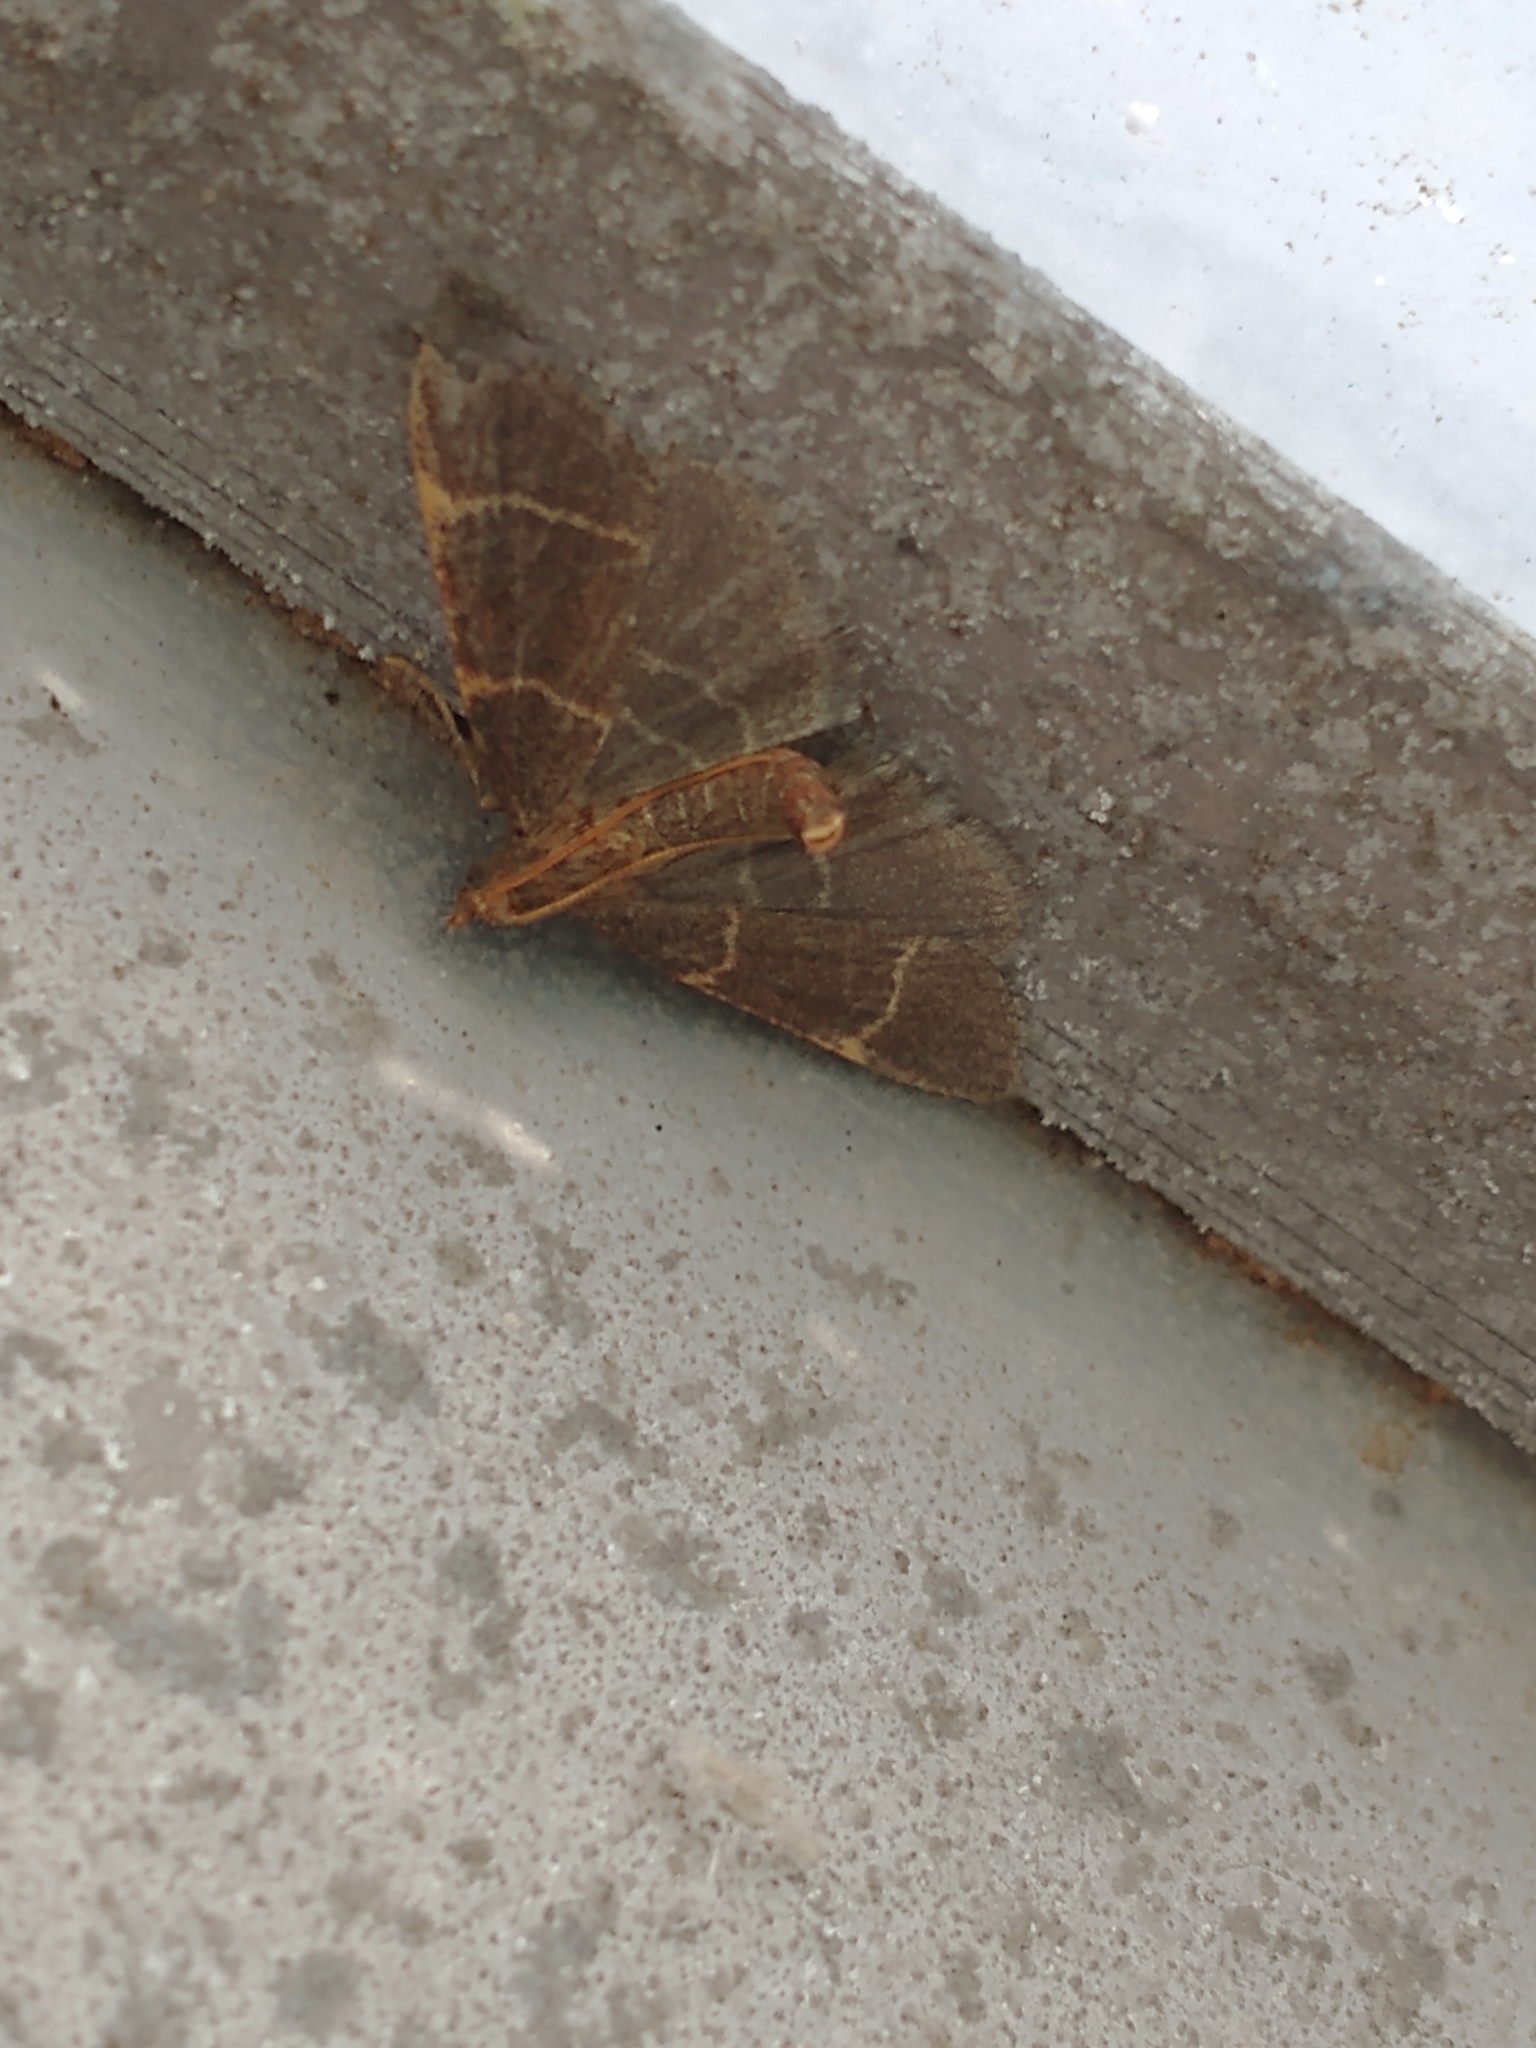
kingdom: Animalia
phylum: Arthropoda
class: Insecta
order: Lepidoptera
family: Pyralidae
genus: Hypsopygia
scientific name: Hypsopygia glaucinalis
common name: Double-striped tabby
